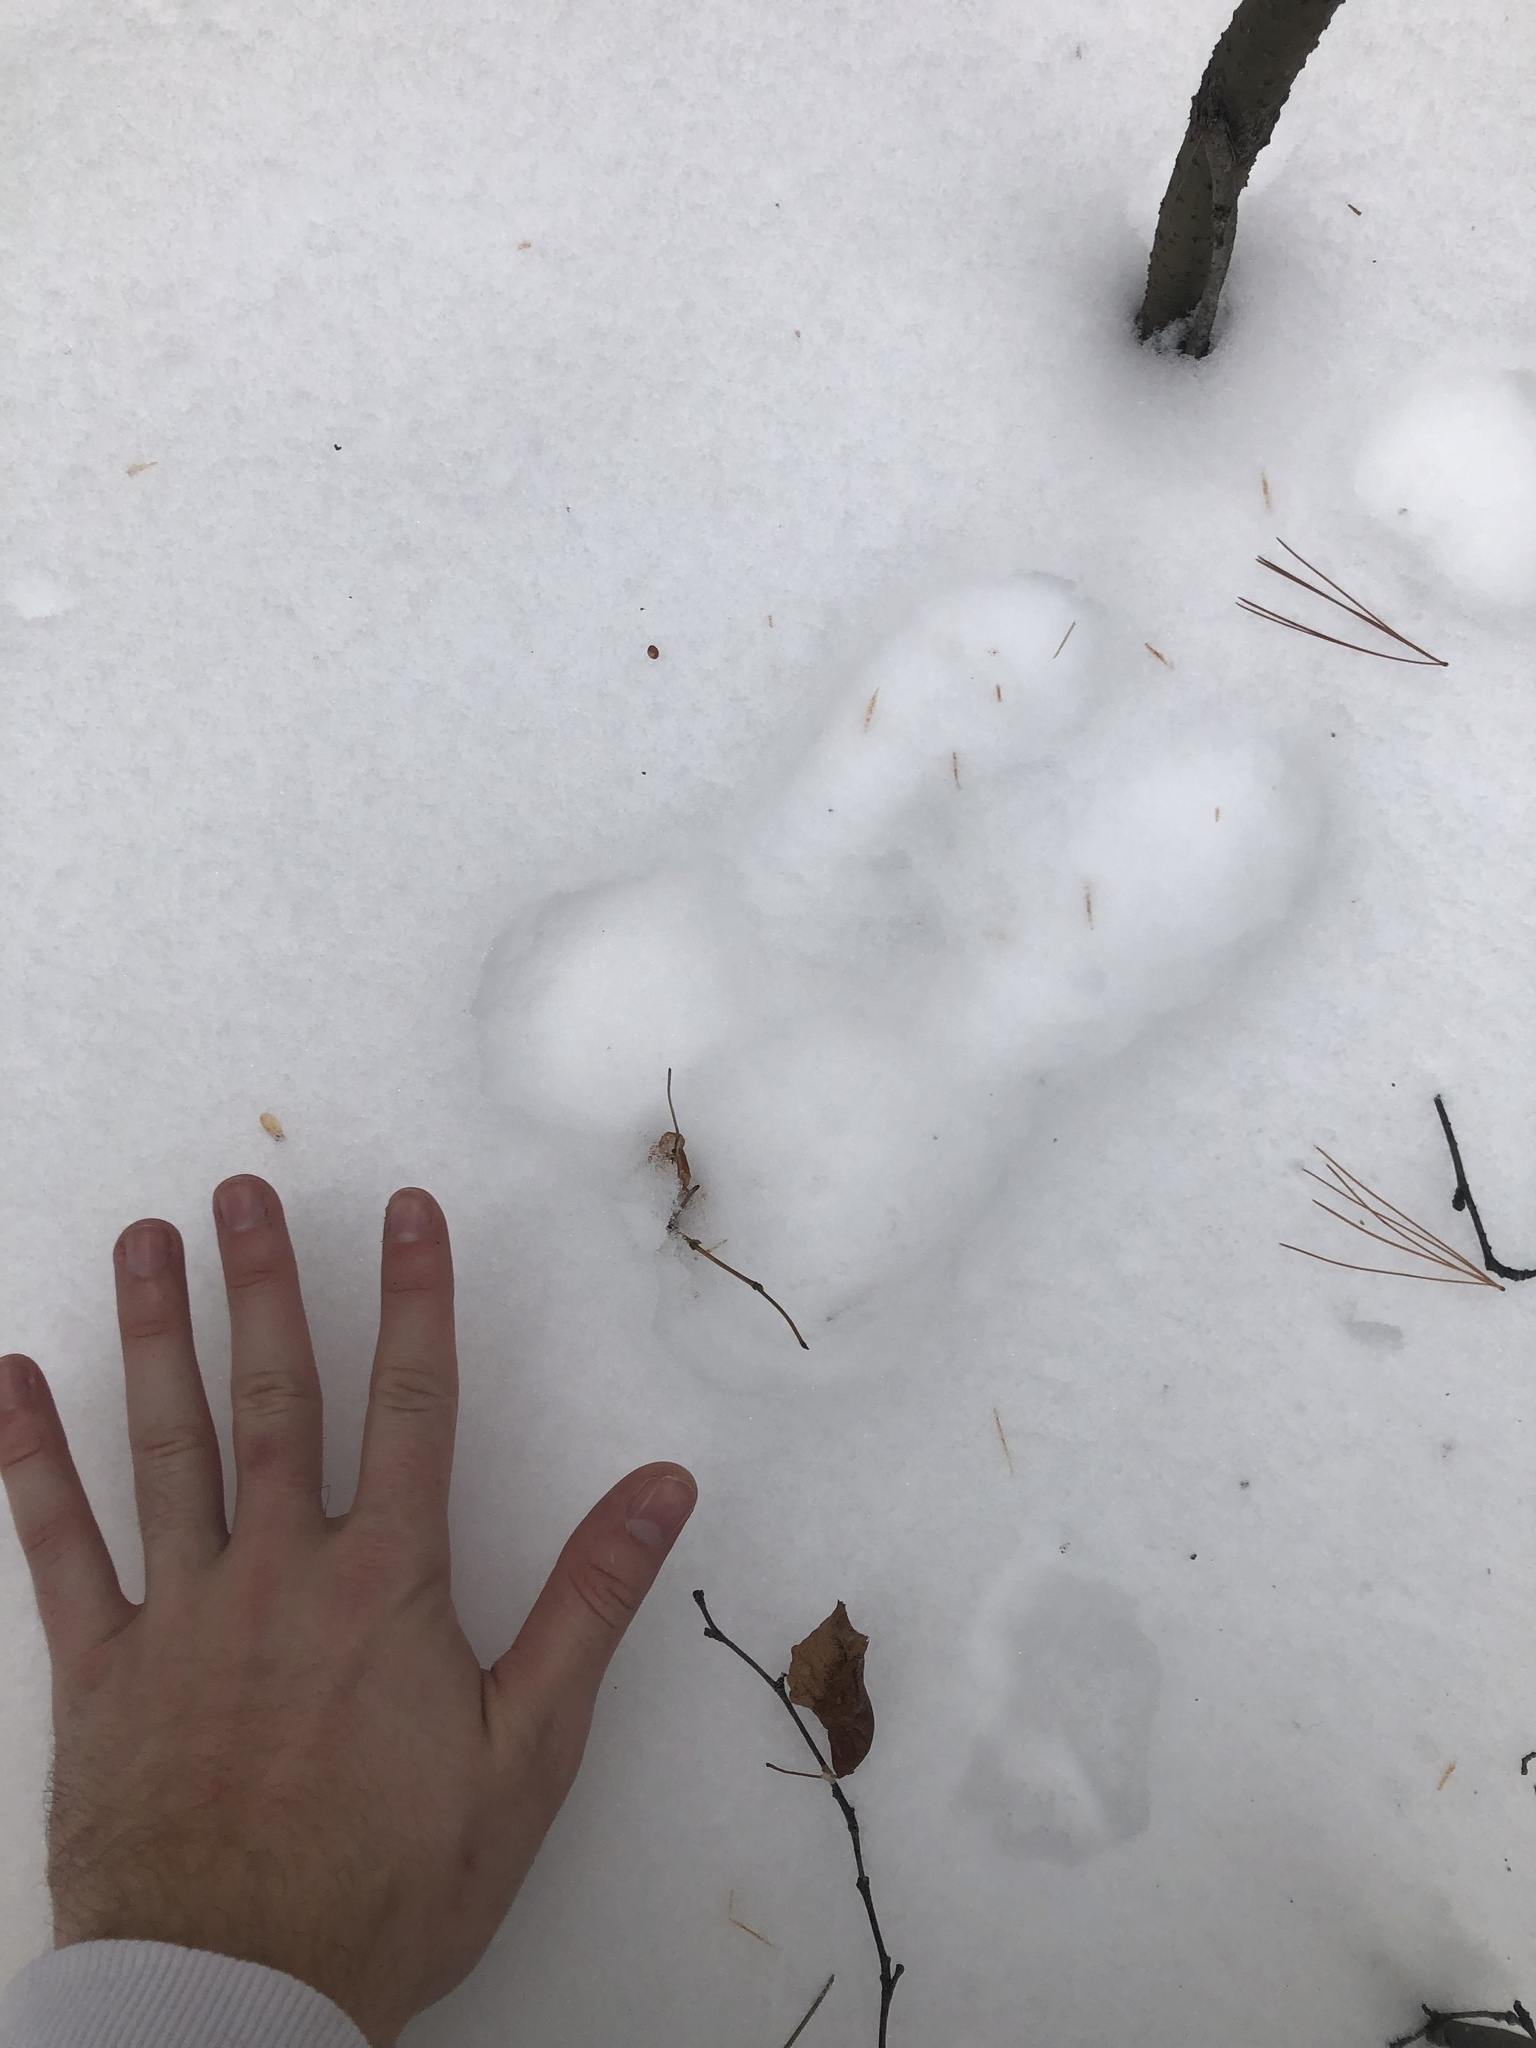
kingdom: Animalia
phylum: Chordata
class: Mammalia
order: Lagomorpha
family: Leporidae
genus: Lepus
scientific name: Lepus americanus
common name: Snowshoe hare
